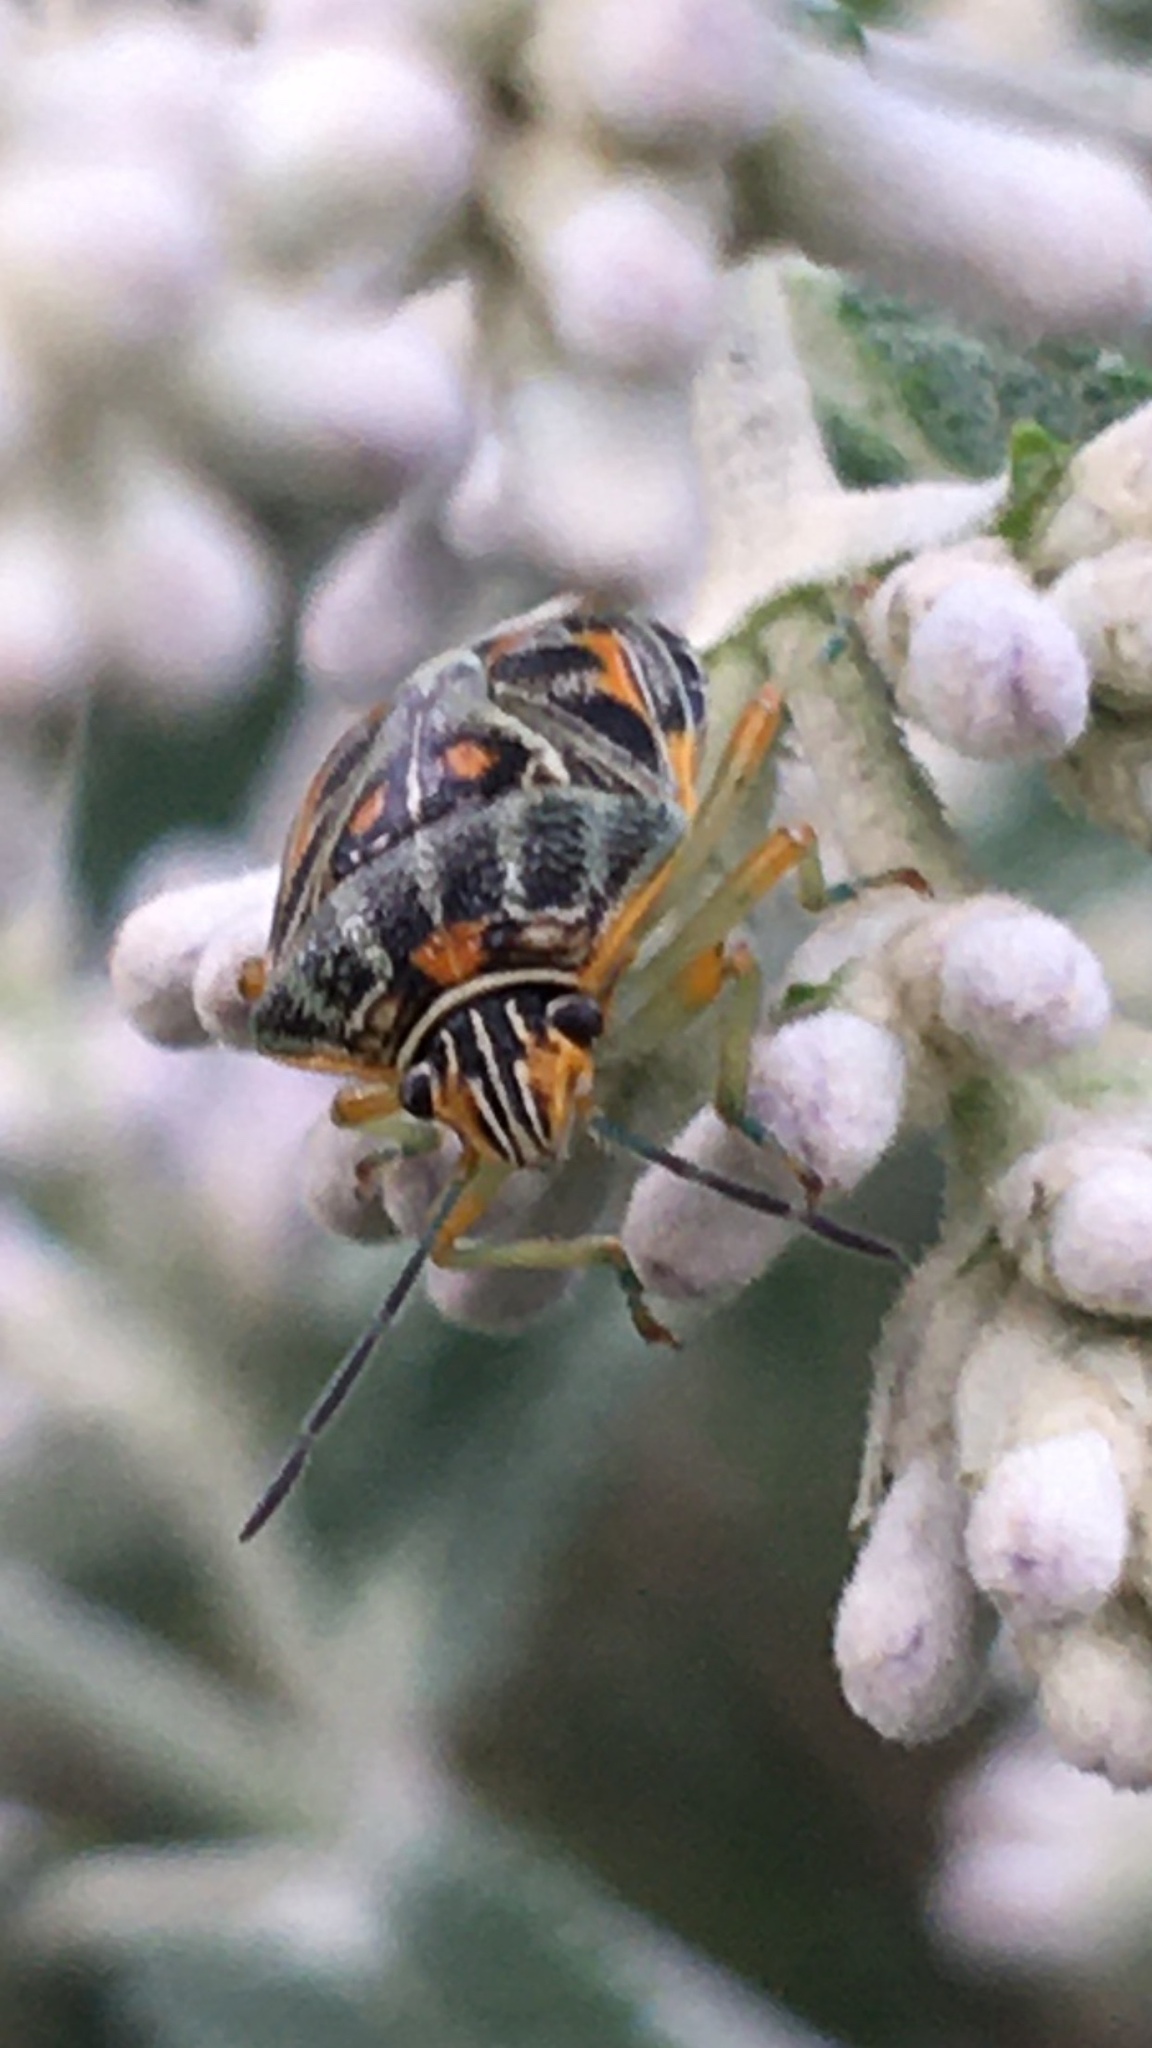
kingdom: Animalia
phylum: Arthropoda
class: Insecta
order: Hemiptera
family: Pentatomidae
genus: Antestiopsis
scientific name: Antestiopsis thunbergii
